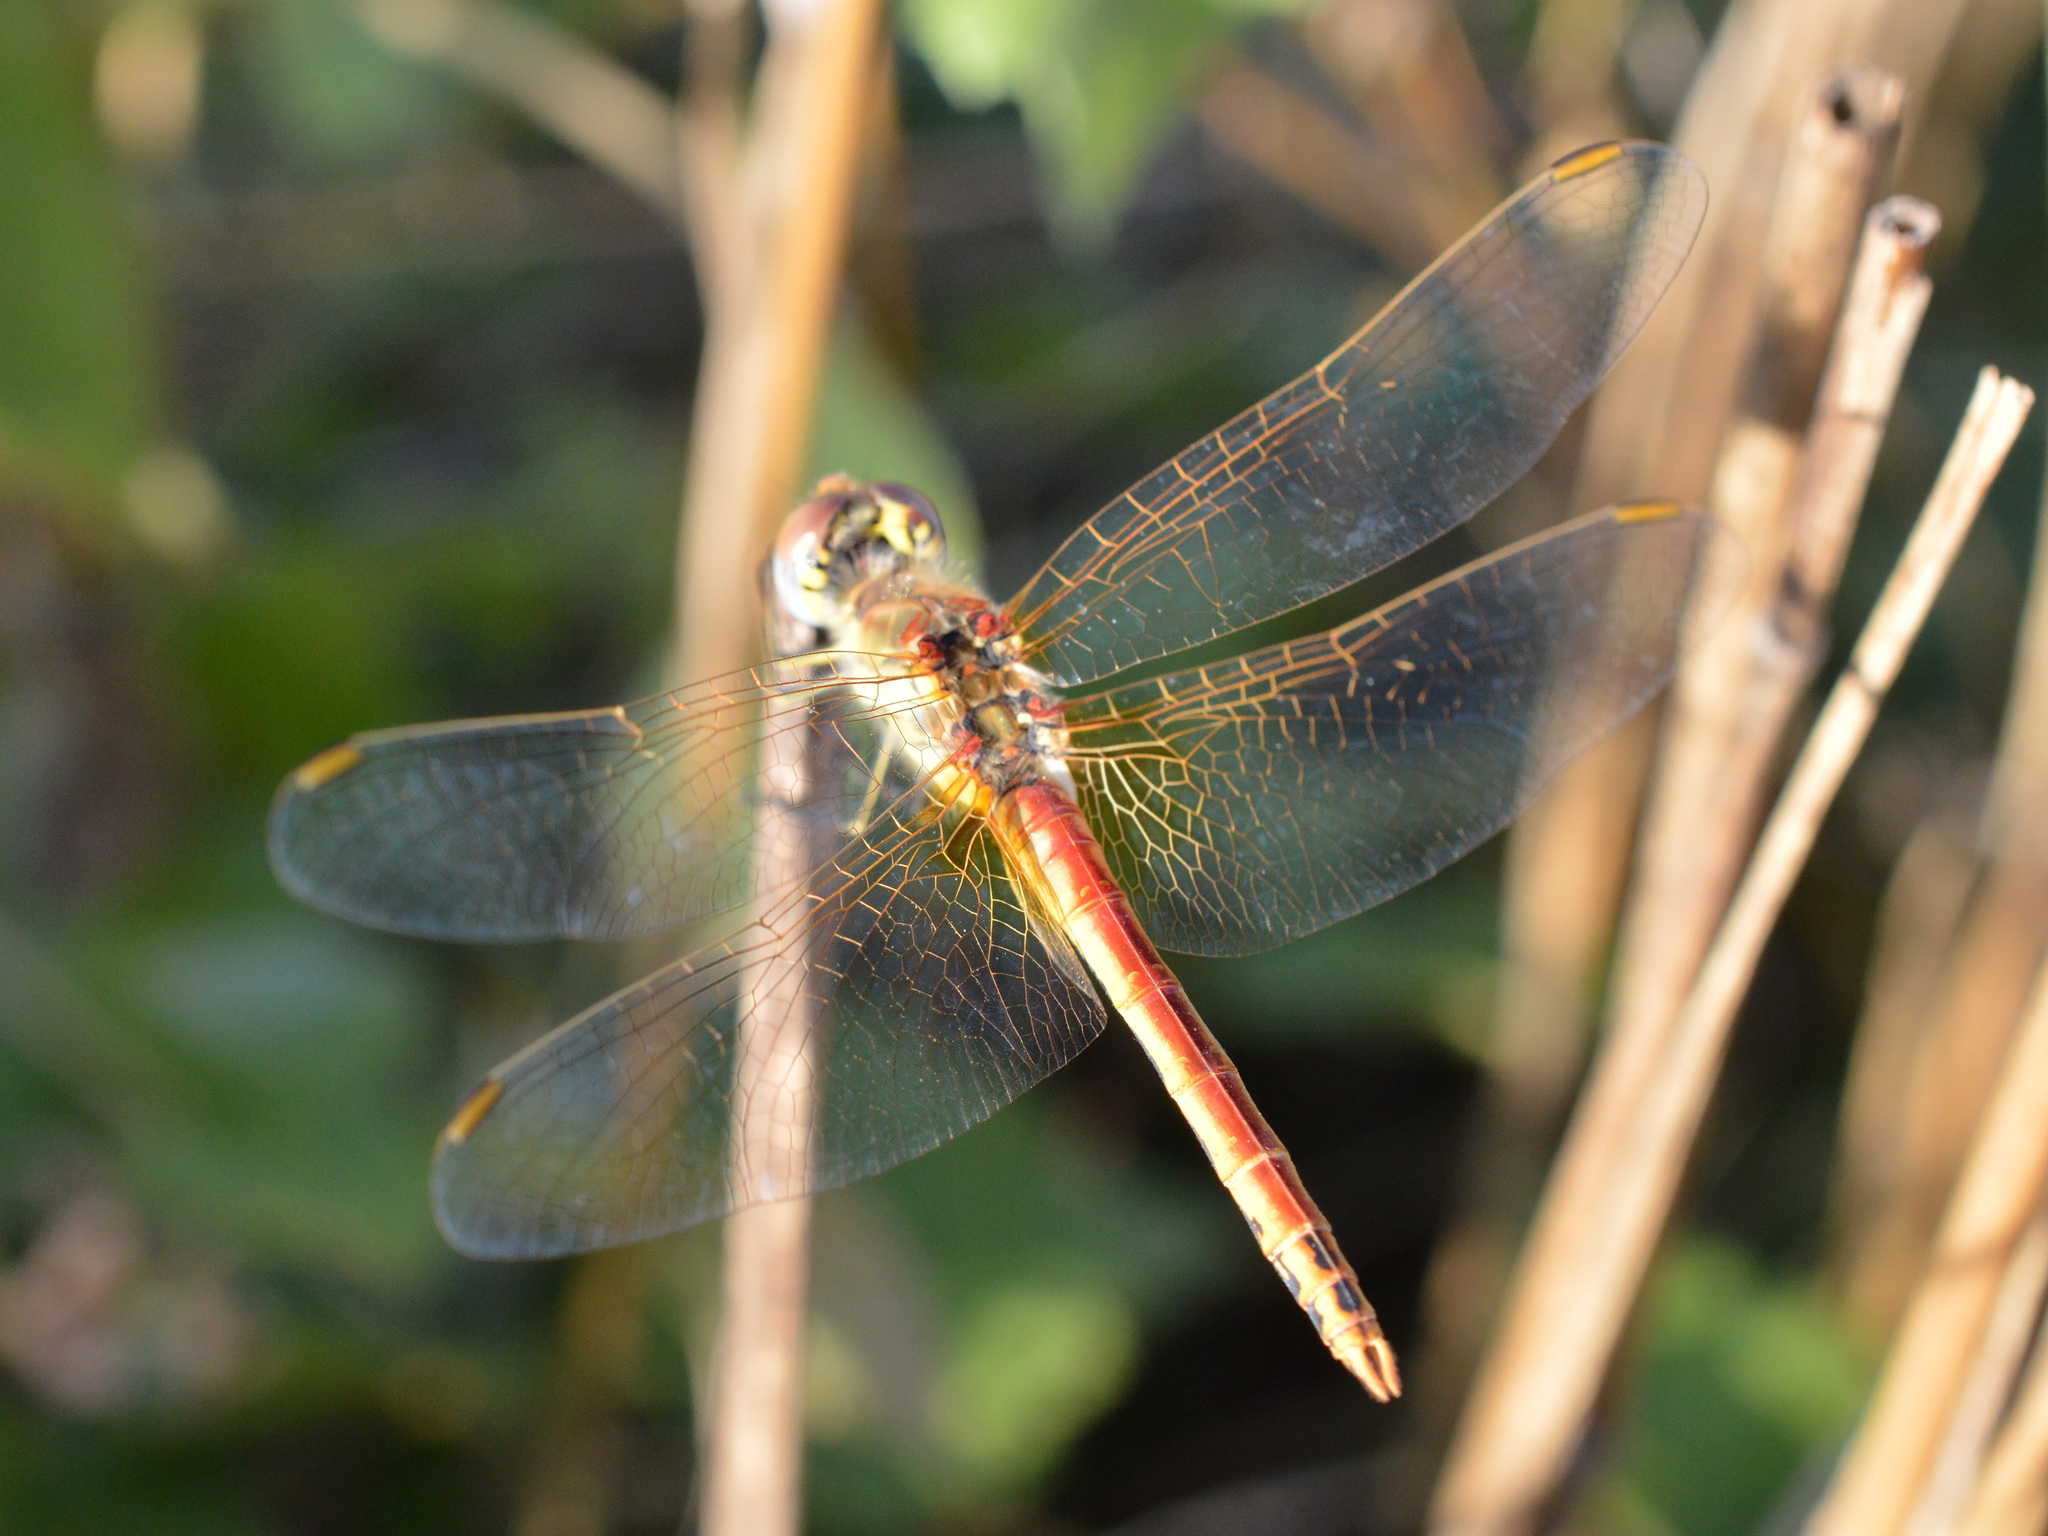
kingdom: Animalia
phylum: Arthropoda
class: Insecta
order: Odonata
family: Libellulidae
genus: Sympetrum
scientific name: Sympetrum fonscolombii
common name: Red-veined darter
